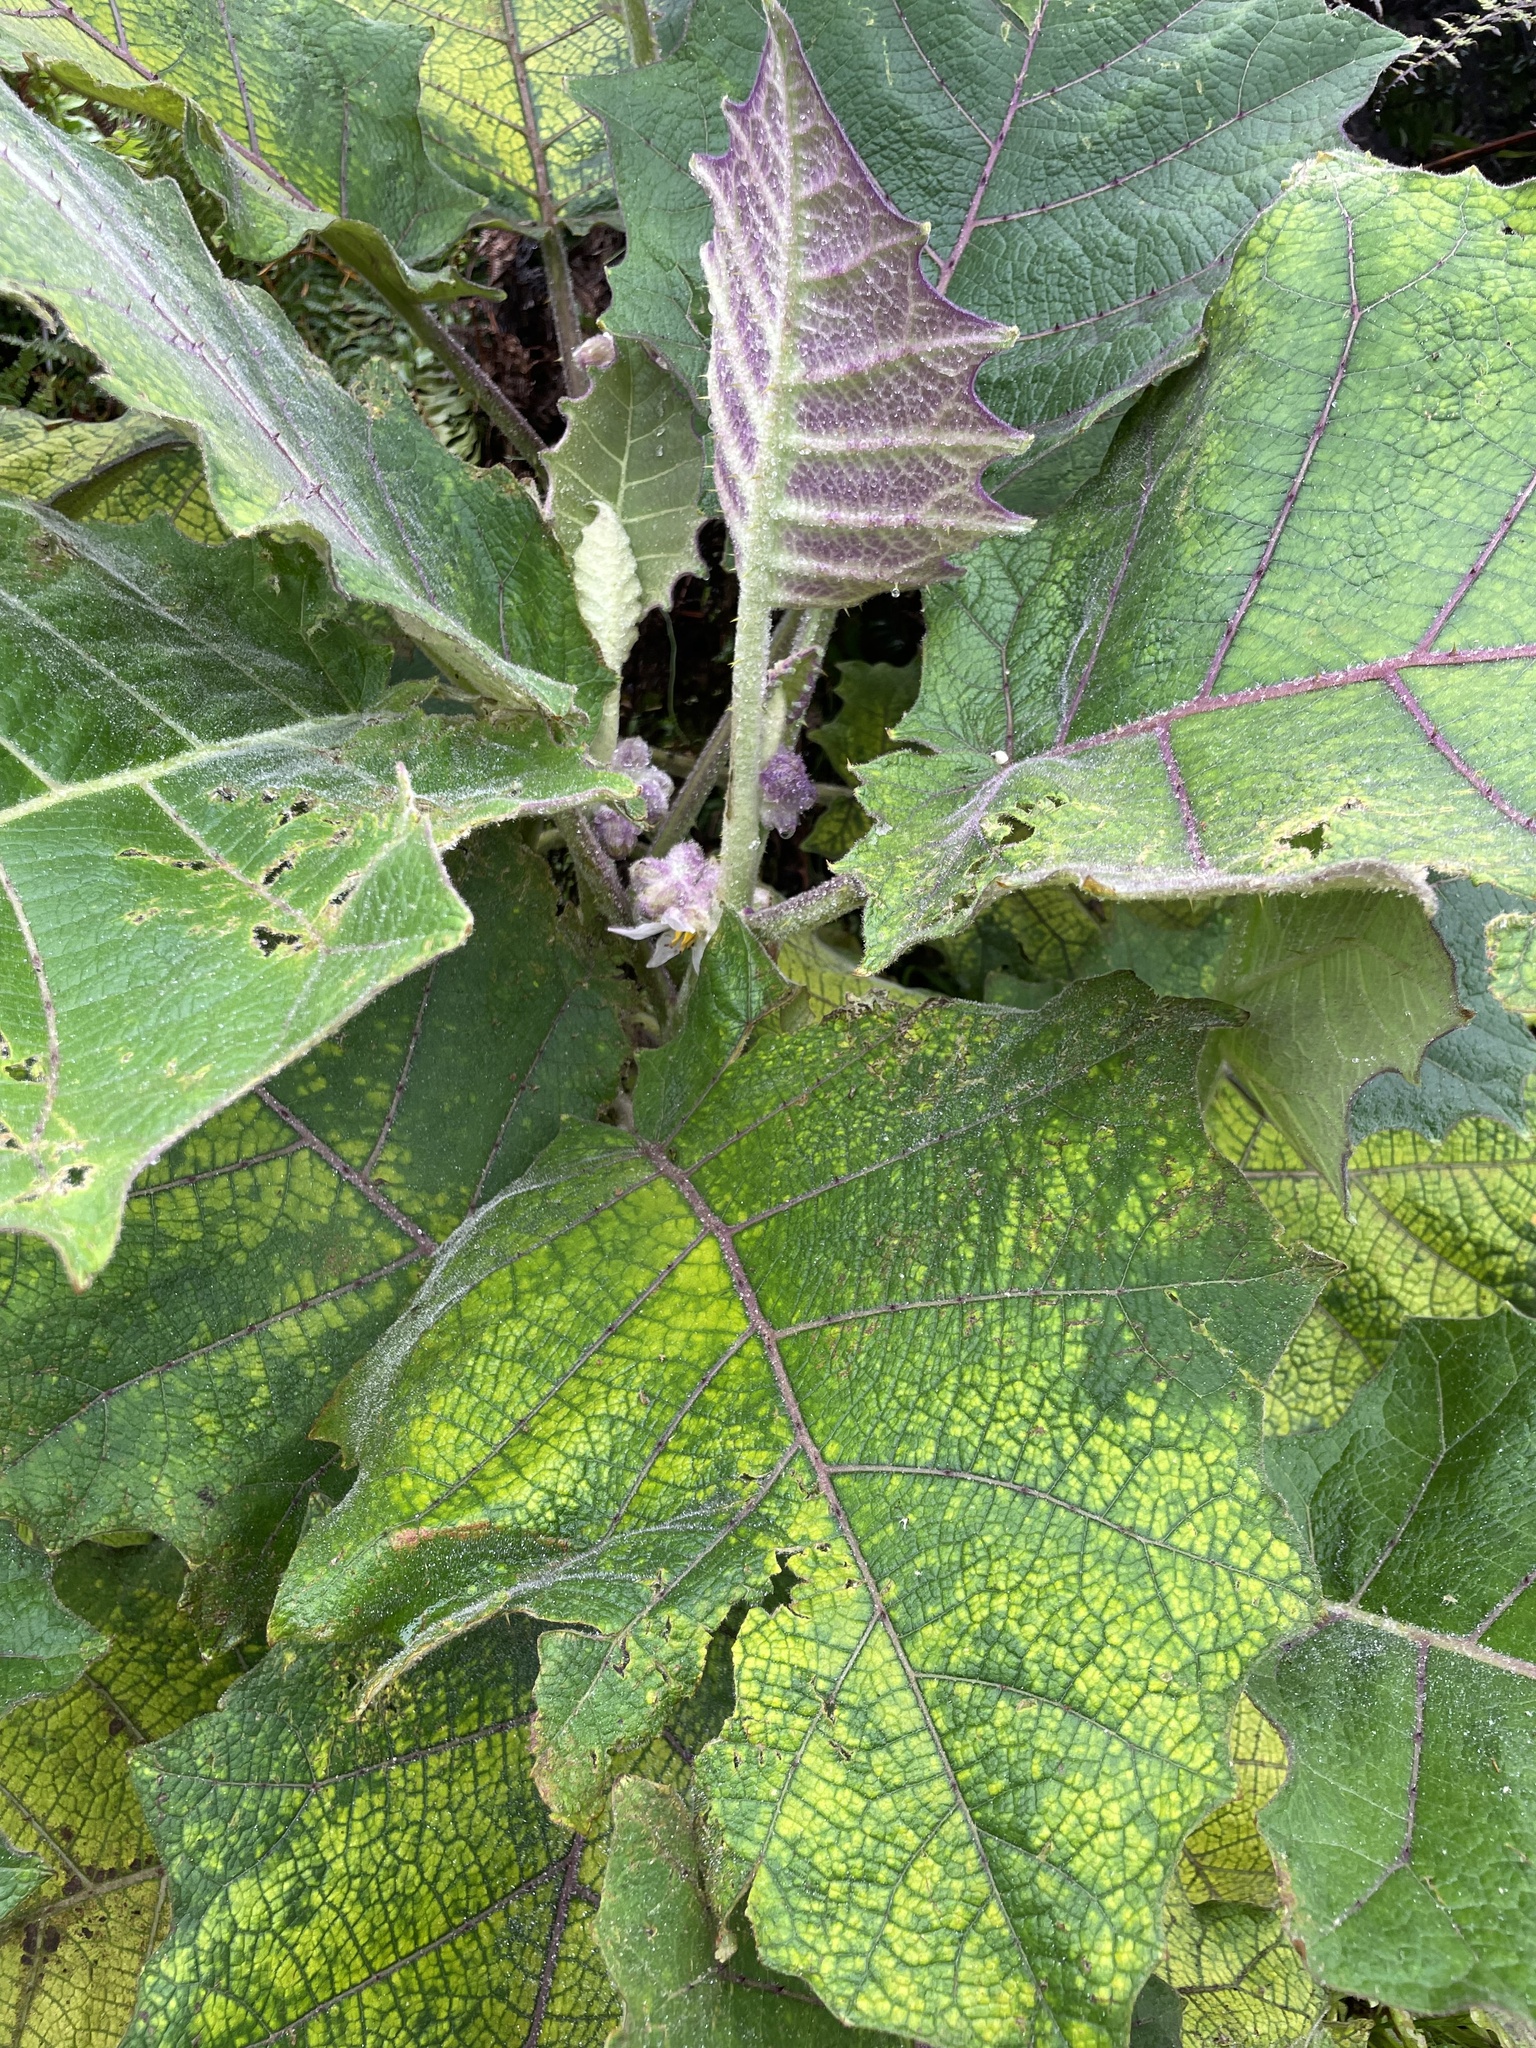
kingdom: Plantae
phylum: Tracheophyta
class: Magnoliopsida
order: Solanales
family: Solanaceae
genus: Solanum
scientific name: Solanum quitoense
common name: Quito-orange
